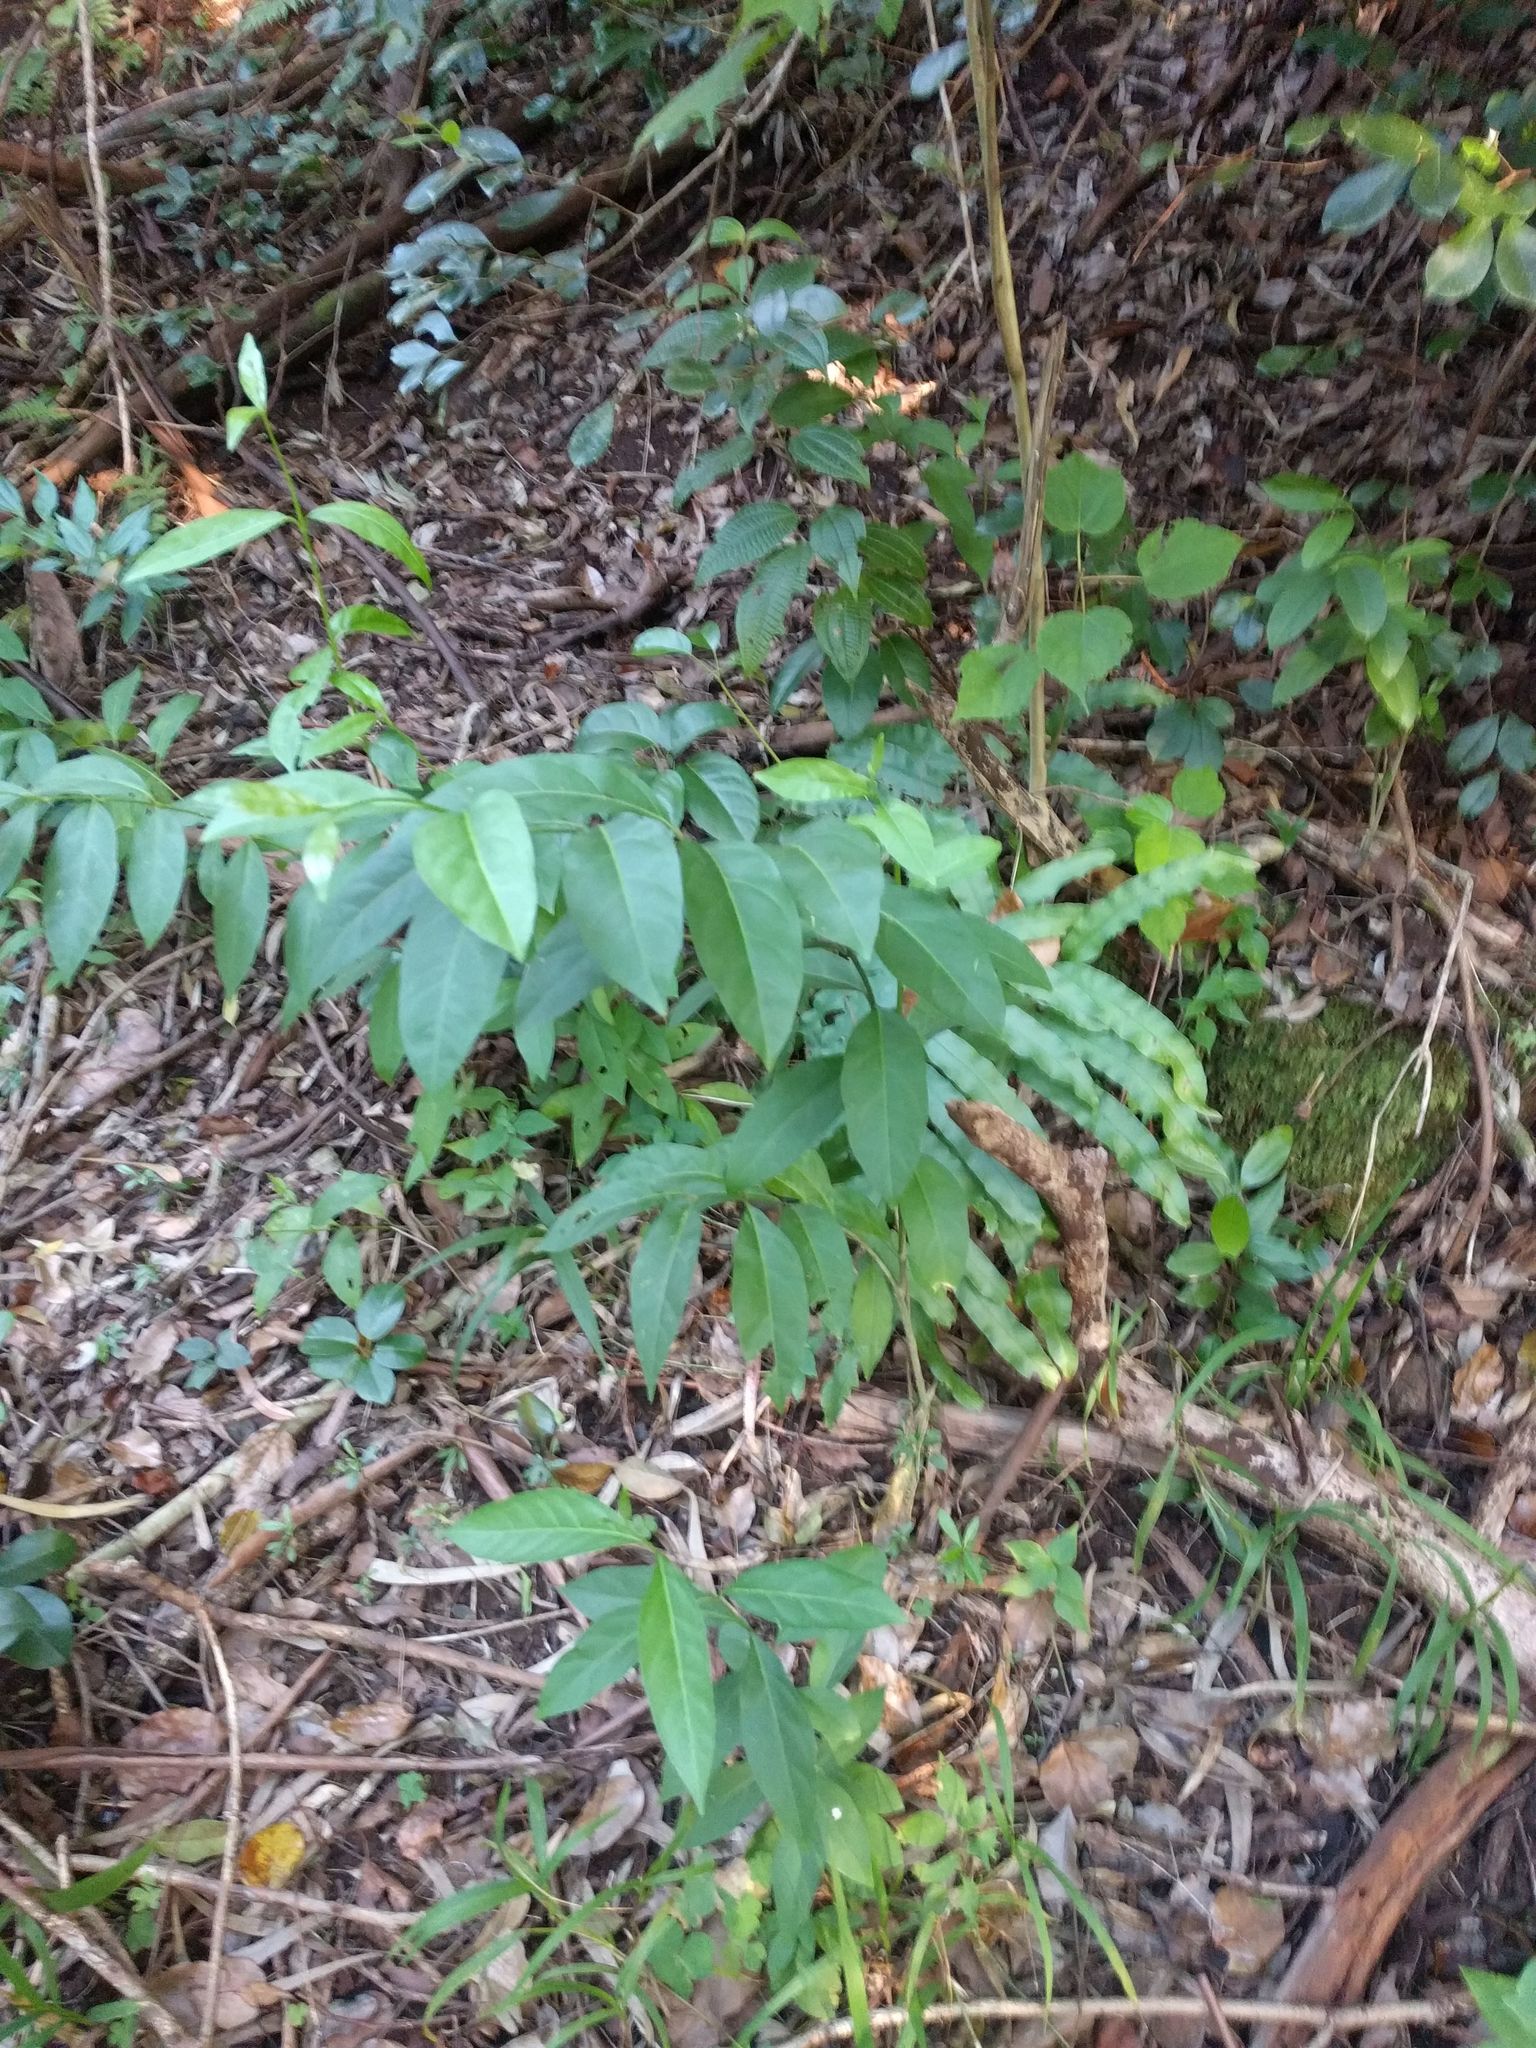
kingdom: Plantae
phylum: Tracheophyta
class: Magnoliopsida
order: Lamiales
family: Verbenaceae
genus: Citharexylum
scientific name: Citharexylum caudatum
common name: Fiddlewood
